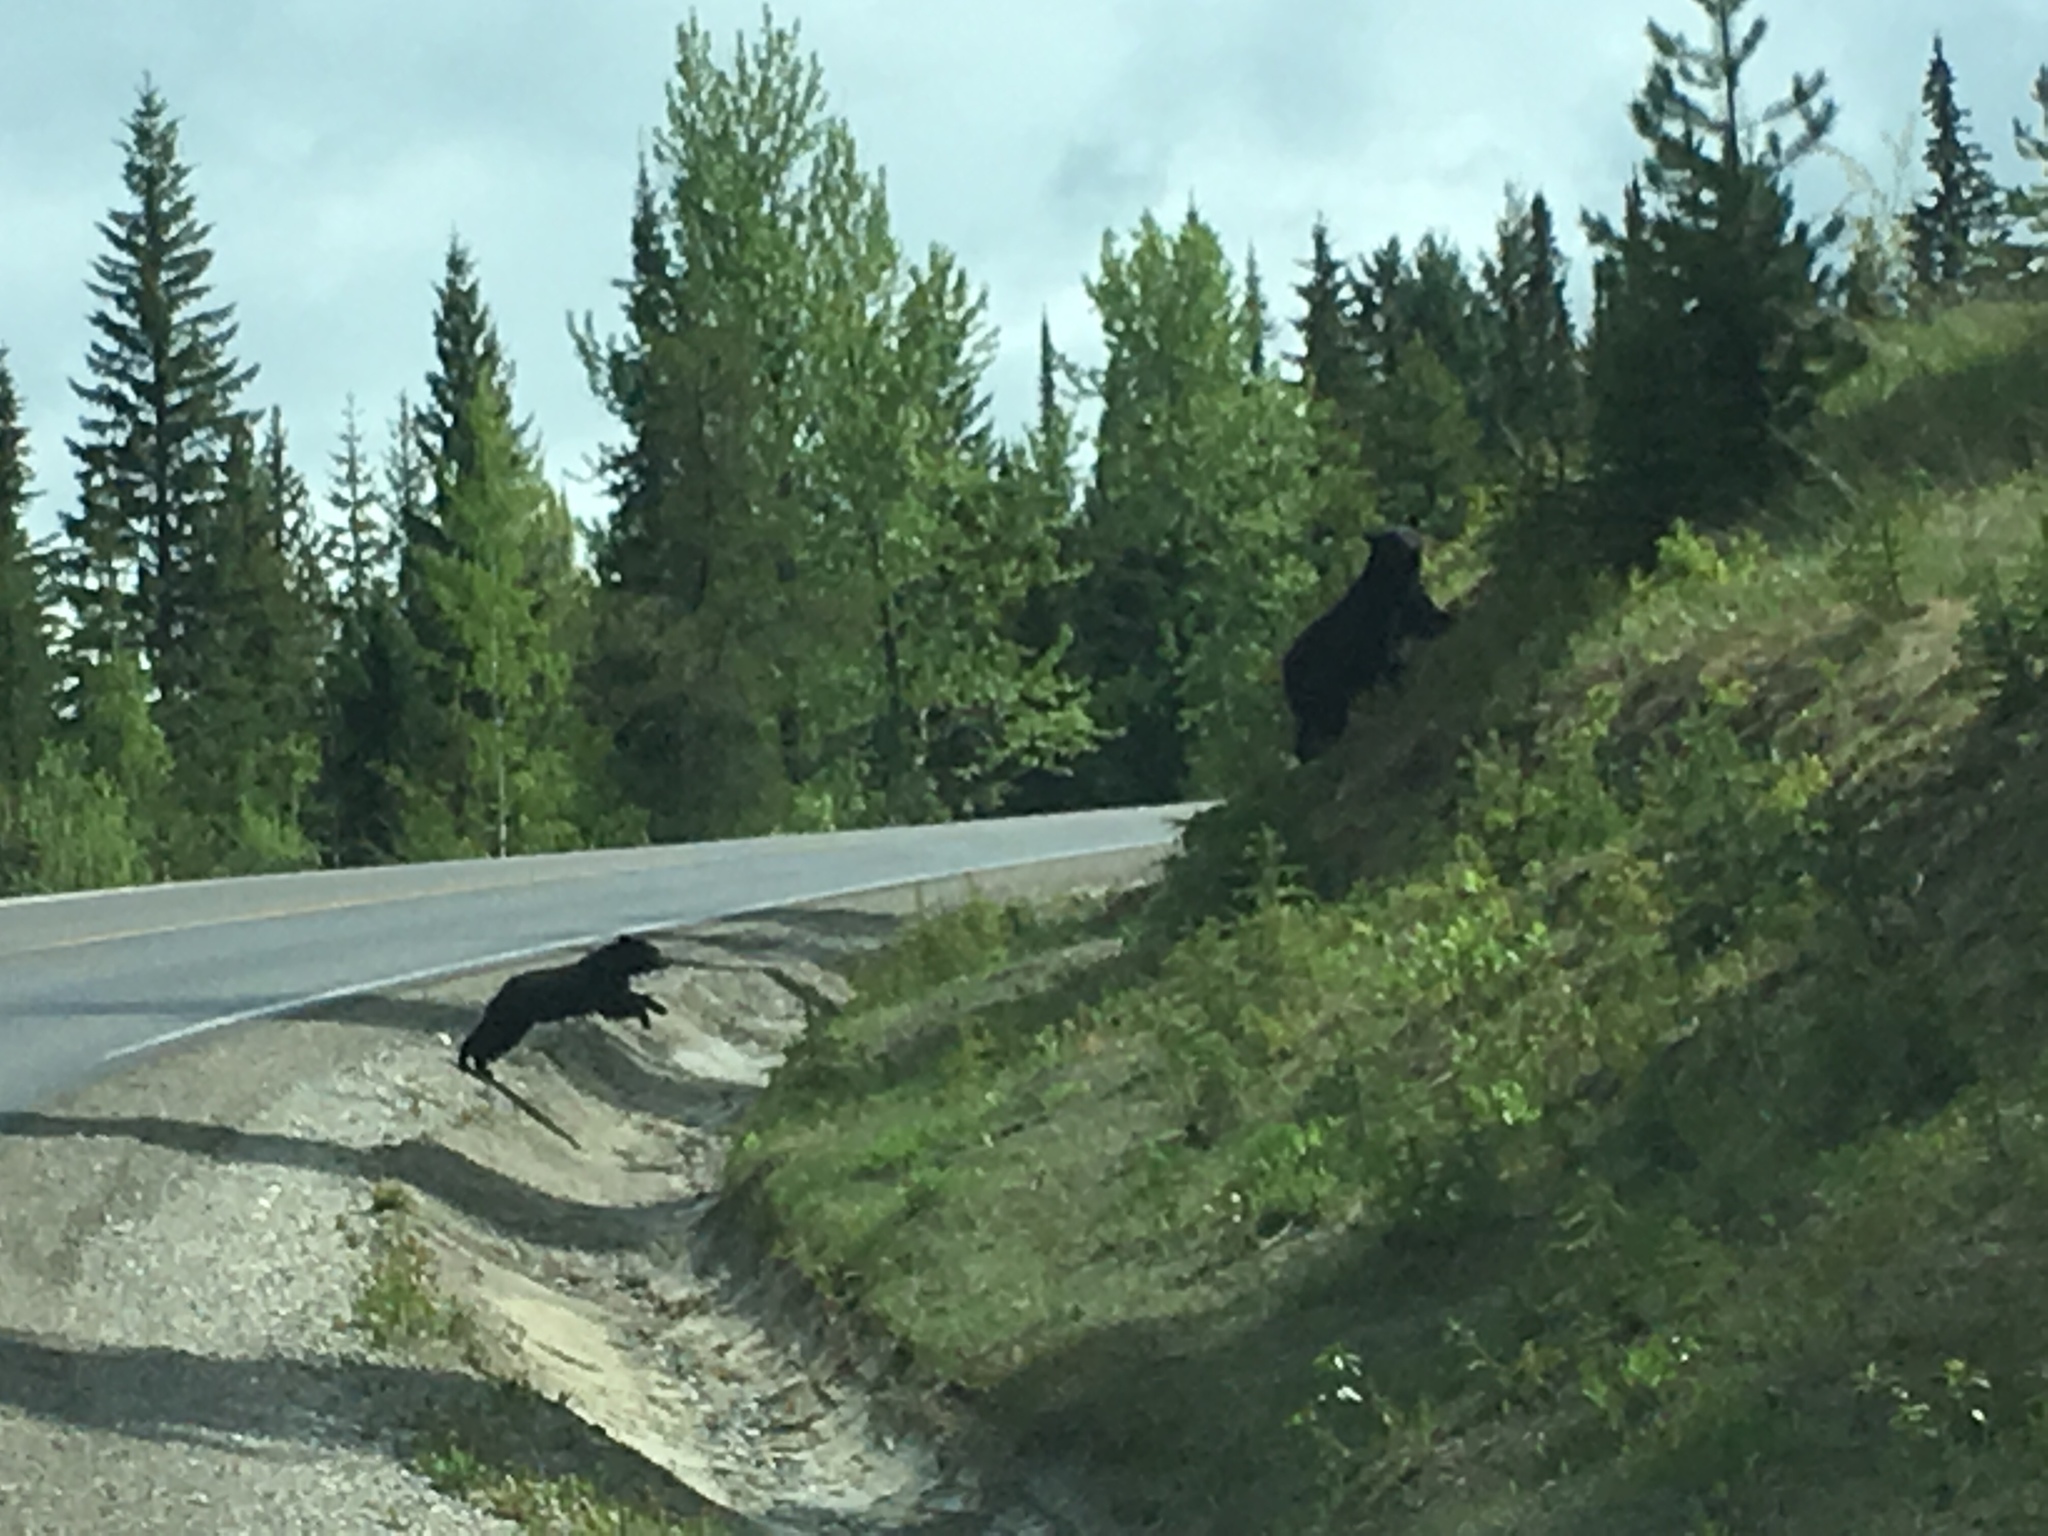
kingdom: Animalia
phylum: Chordata
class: Mammalia
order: Carnivora
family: Ursidae
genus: Ursus
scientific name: Ursus americanus
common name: American black bear
